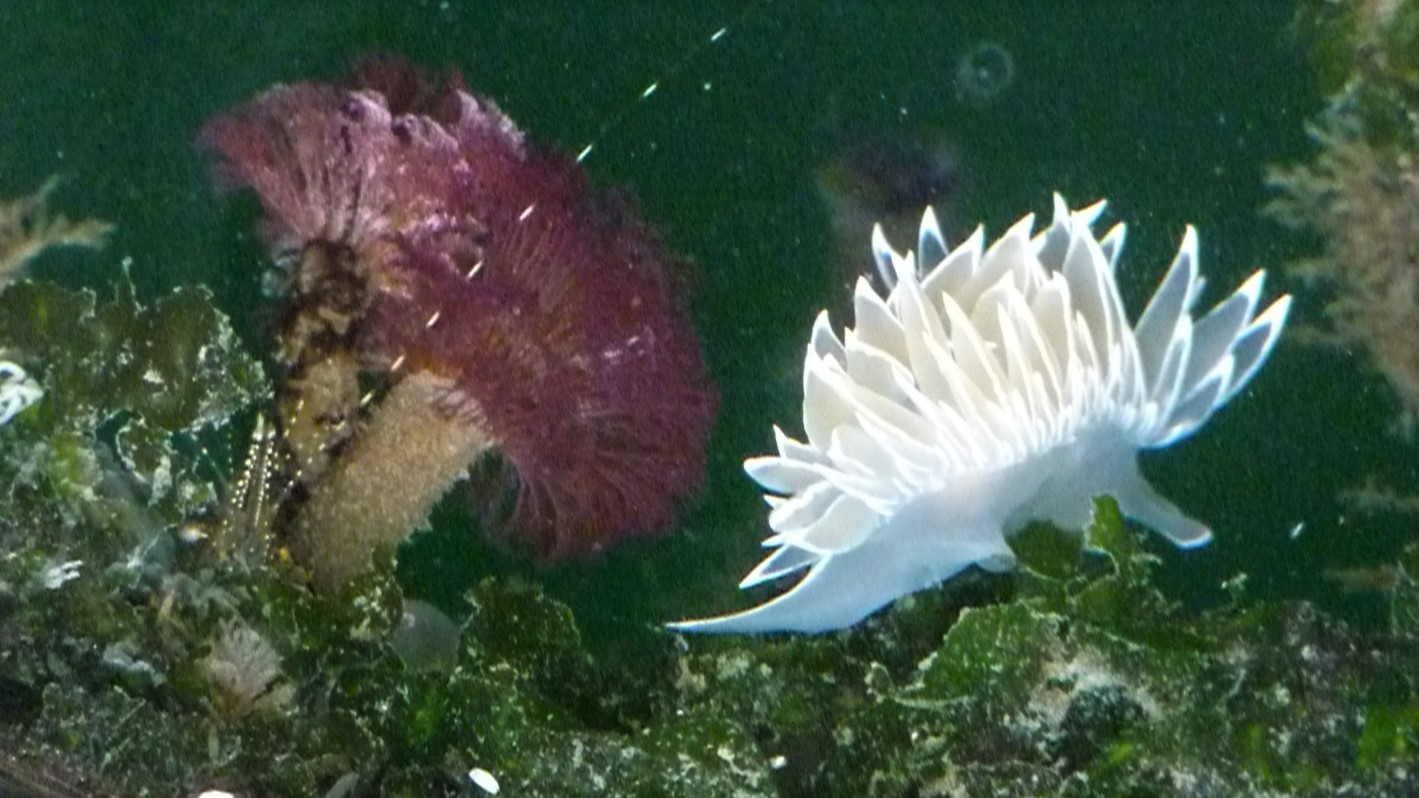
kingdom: Animalia
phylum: Mollusca
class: Gastropoda
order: Nudibranchia
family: Dironidae
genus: Dirona
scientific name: Dirona albolineata
